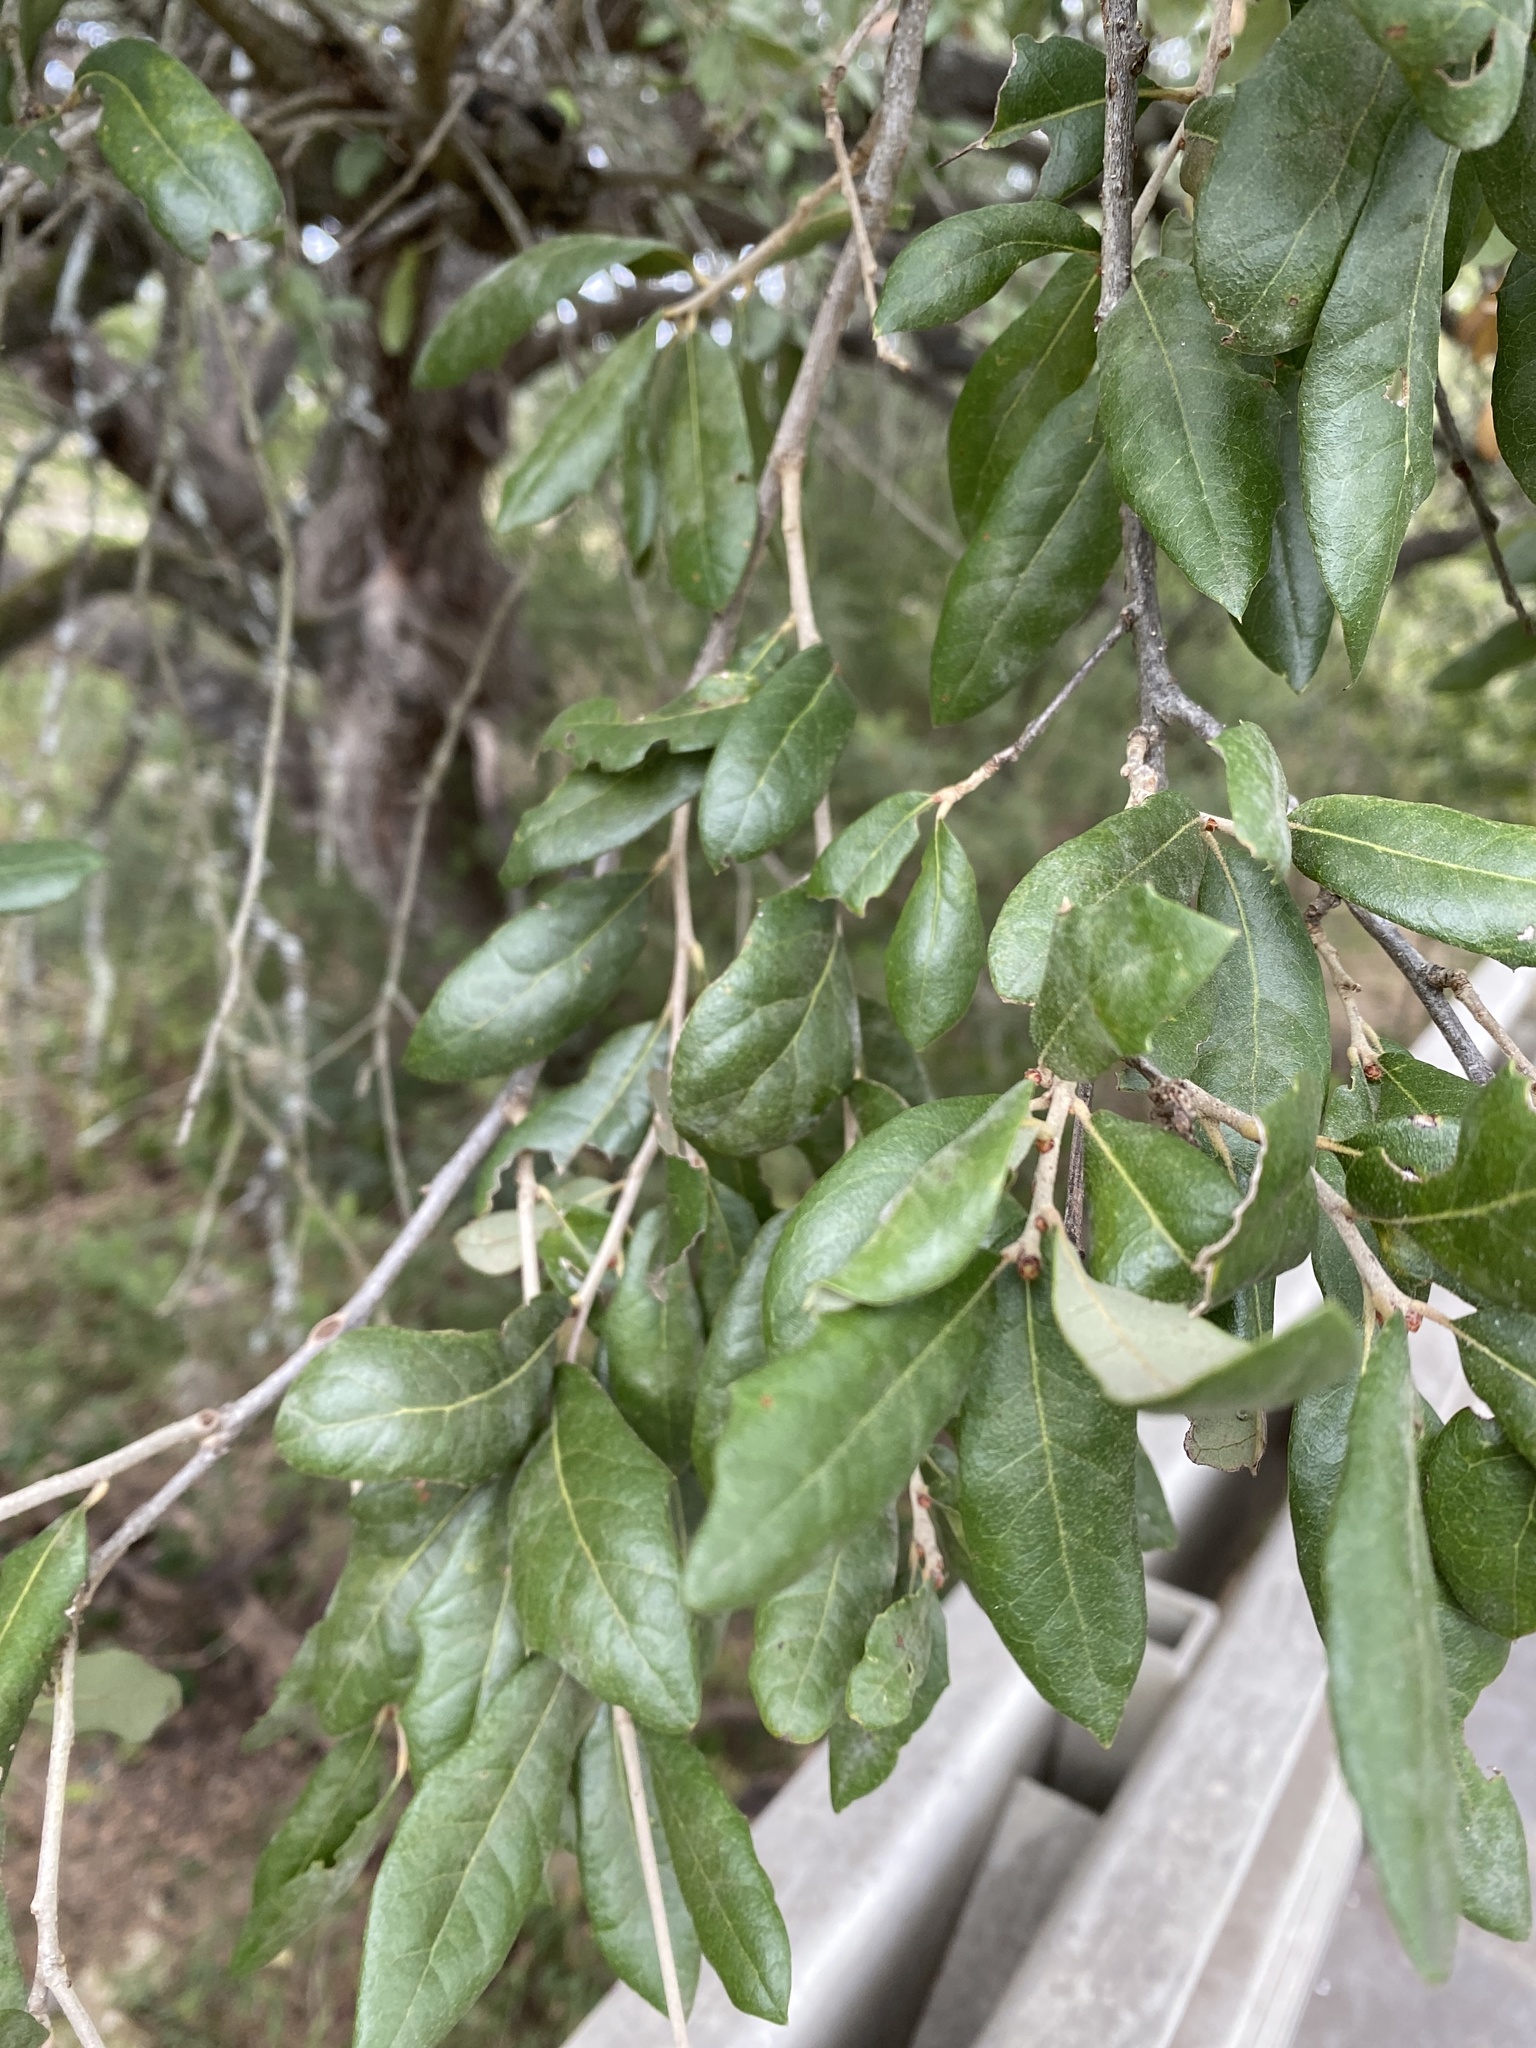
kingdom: Plantae
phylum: Tracheophyta
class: Magnoliopsida
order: Fagales
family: Fagaceae
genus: Quercus
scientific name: Quercus fusiformis
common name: Texas live oak
